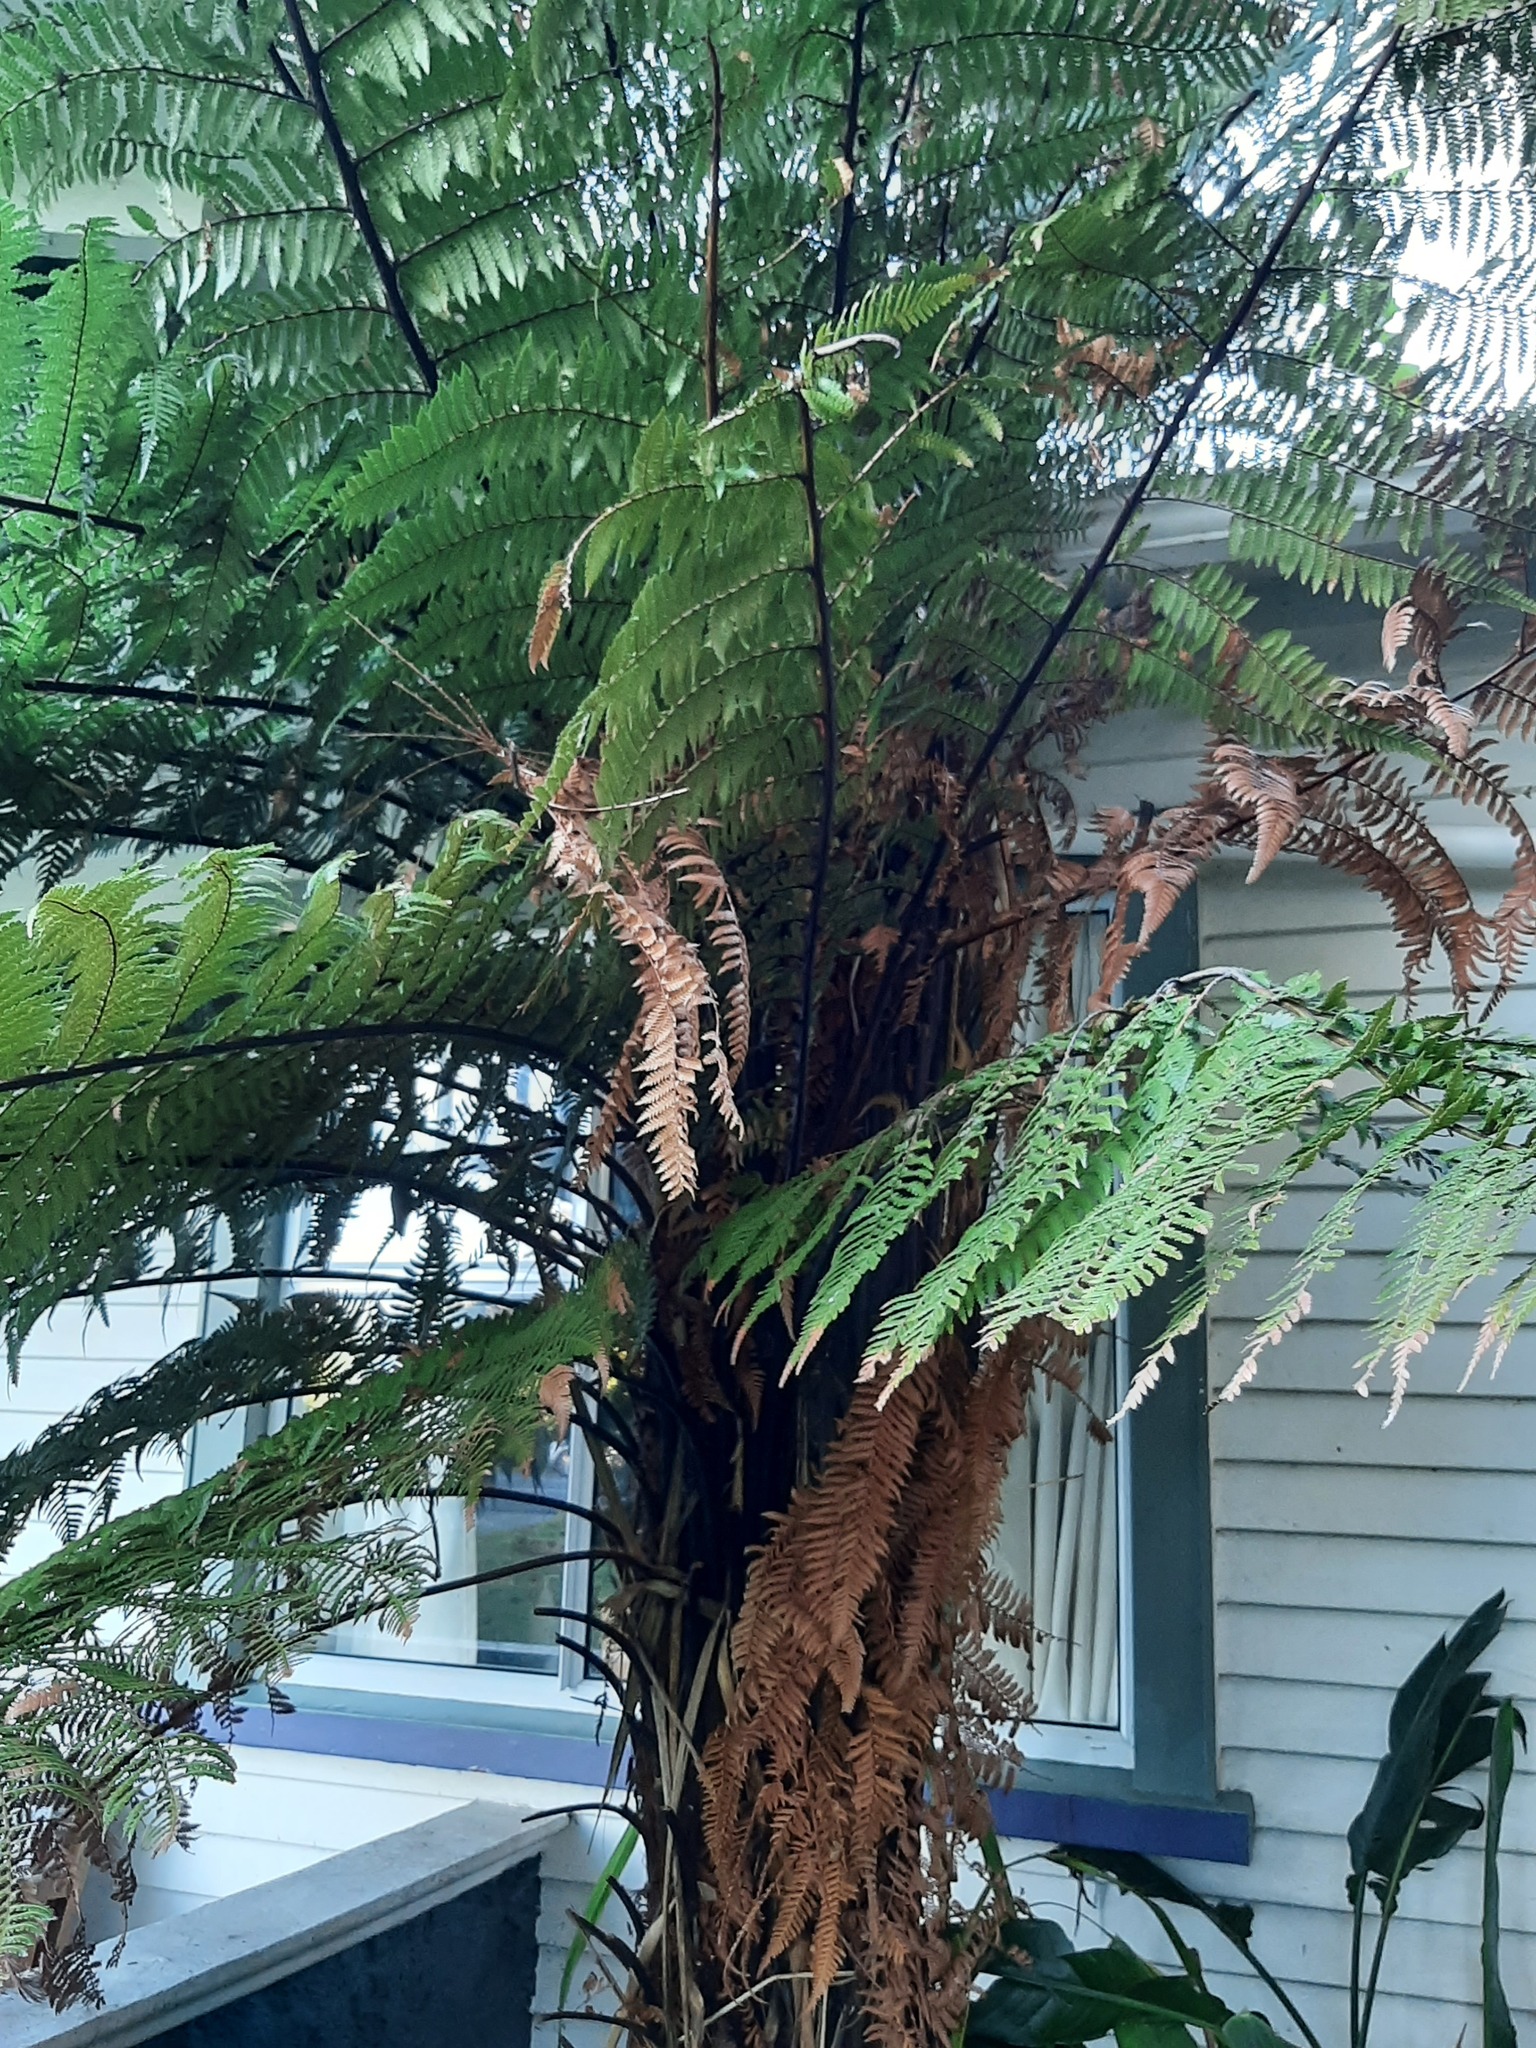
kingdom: Plantae
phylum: Tracheophyta
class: Polypodiopsida
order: Cyatheales
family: Dicksoniaceae
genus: Dicksonia
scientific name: Dicksonia squarrosa
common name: Hard treefern
